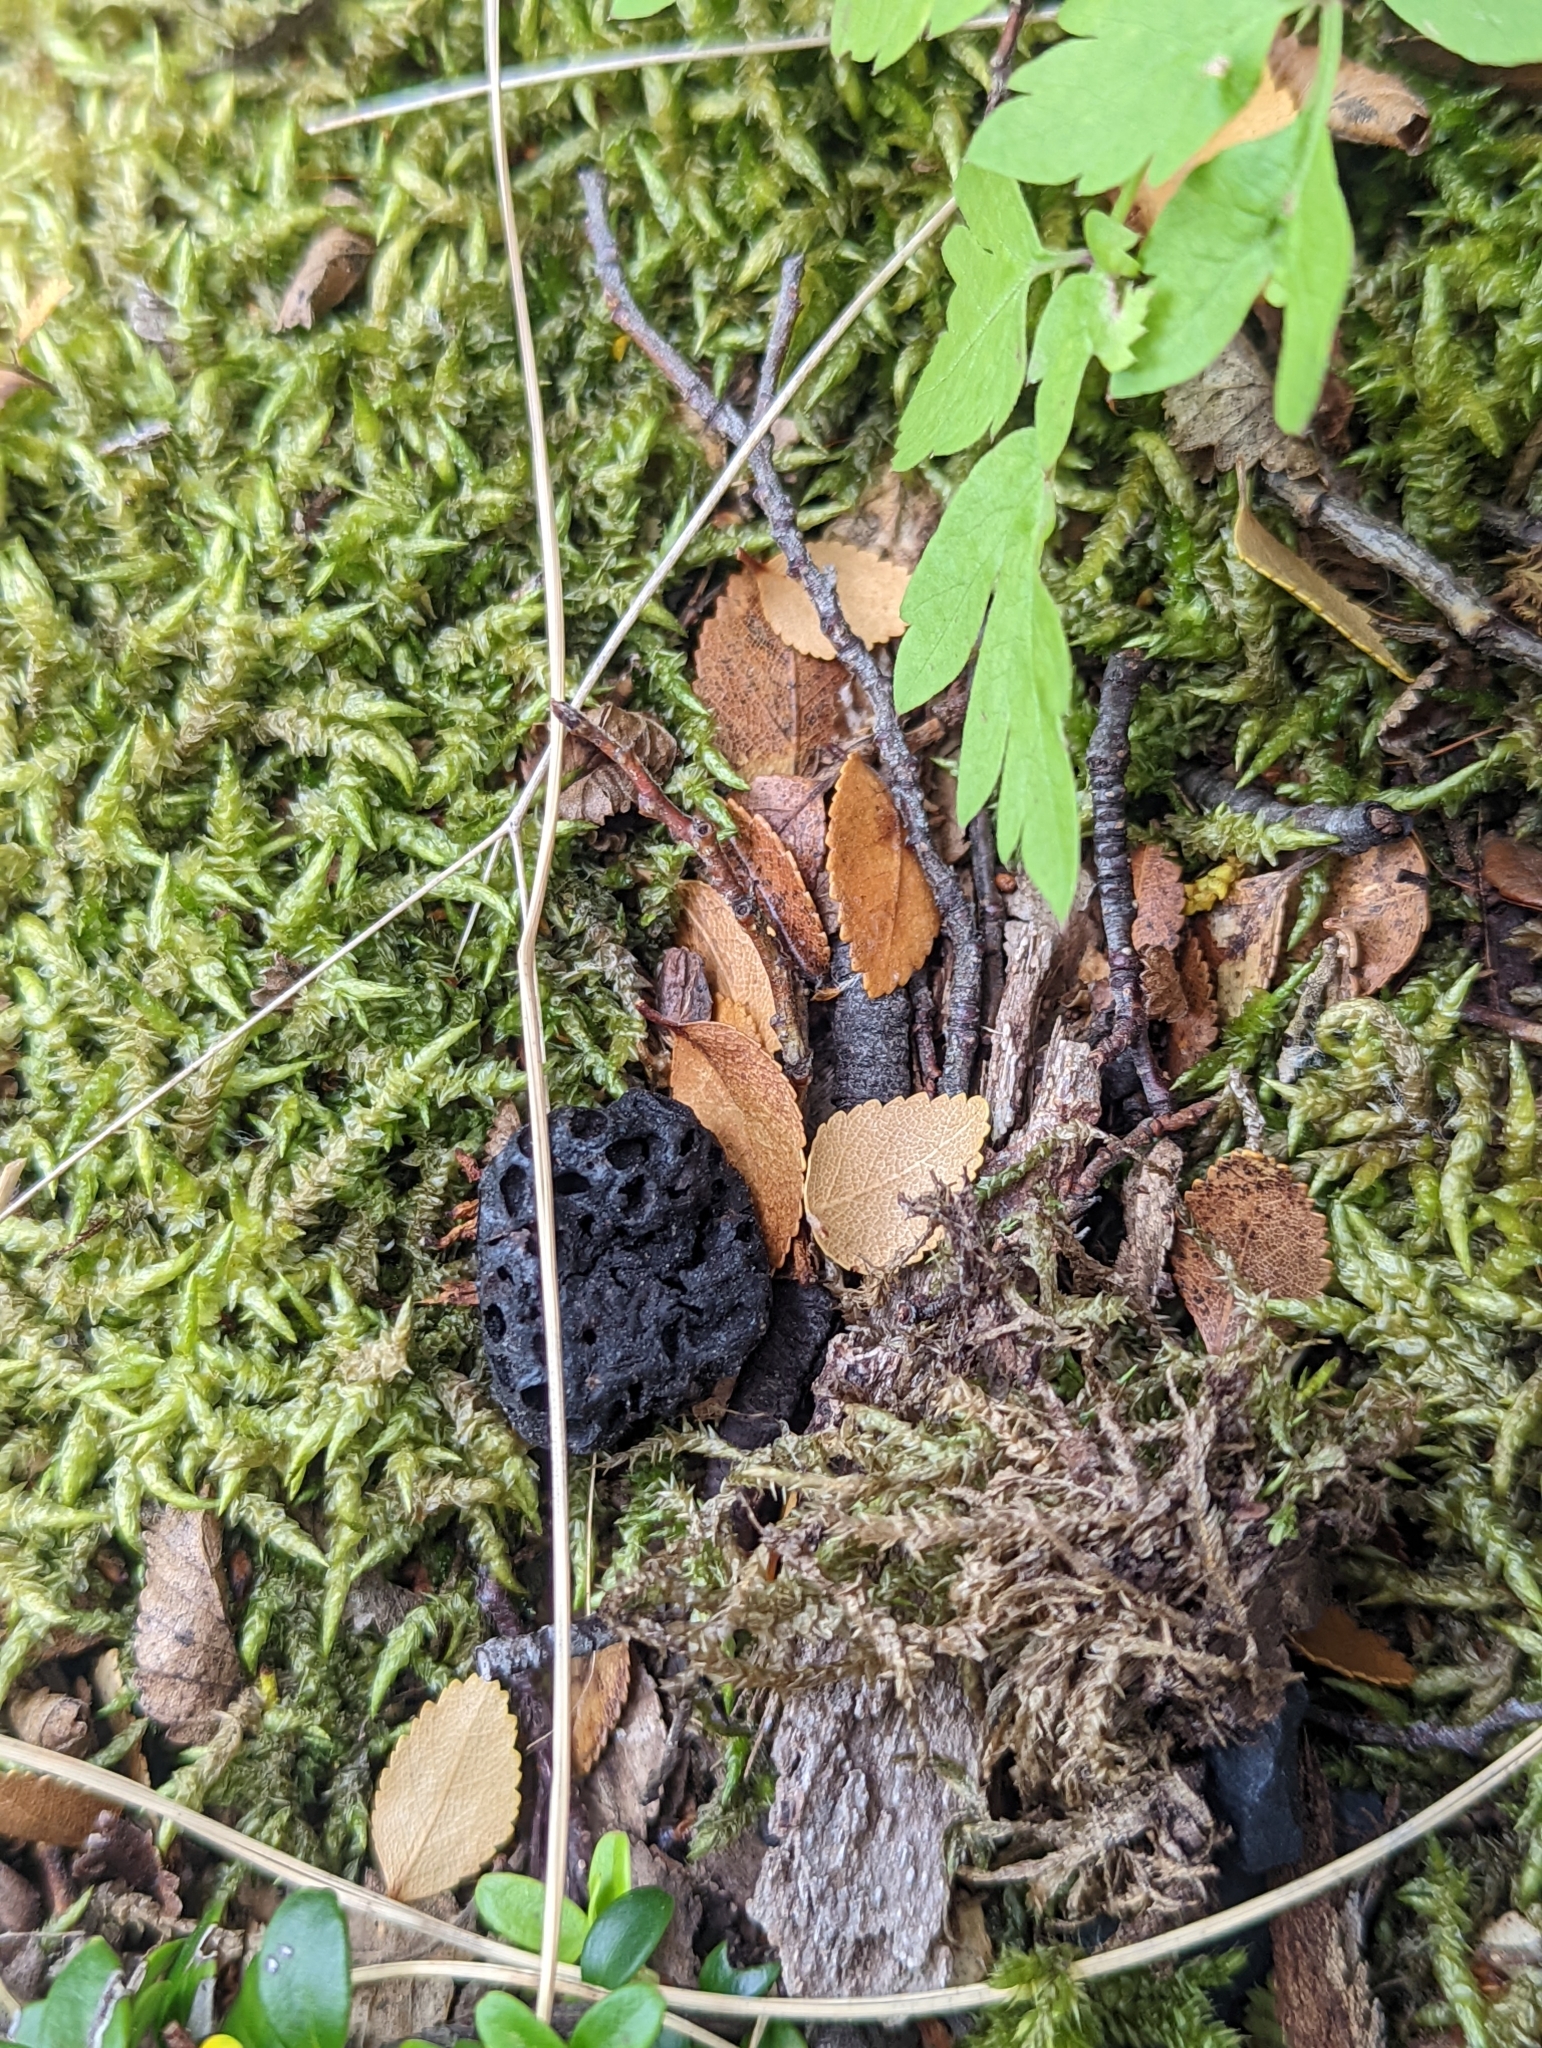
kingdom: Fungi
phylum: Ascomycota
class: Leotiomycetes
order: Cyttariales
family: Cyttariaceae
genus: Cyttaria
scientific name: Cyttaria hariotii
